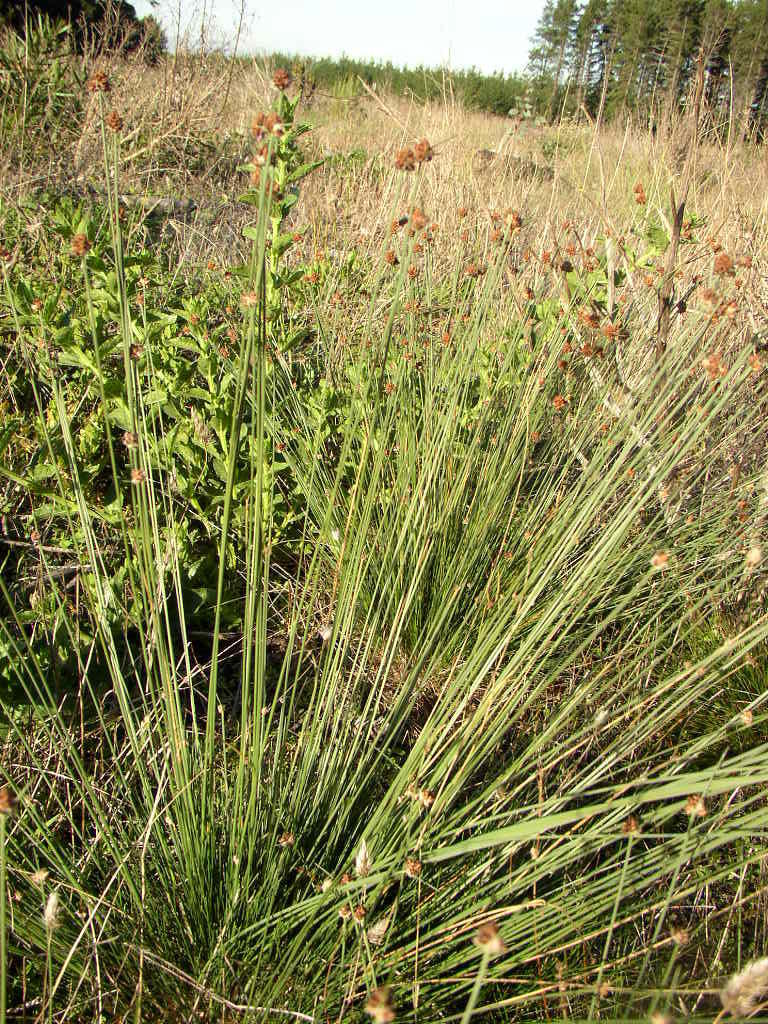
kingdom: Plantae
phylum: Tracheophyta
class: Liliopsida
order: Poales
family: Cyperaceae
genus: Ficinia
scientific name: Ficinia ecklonea
